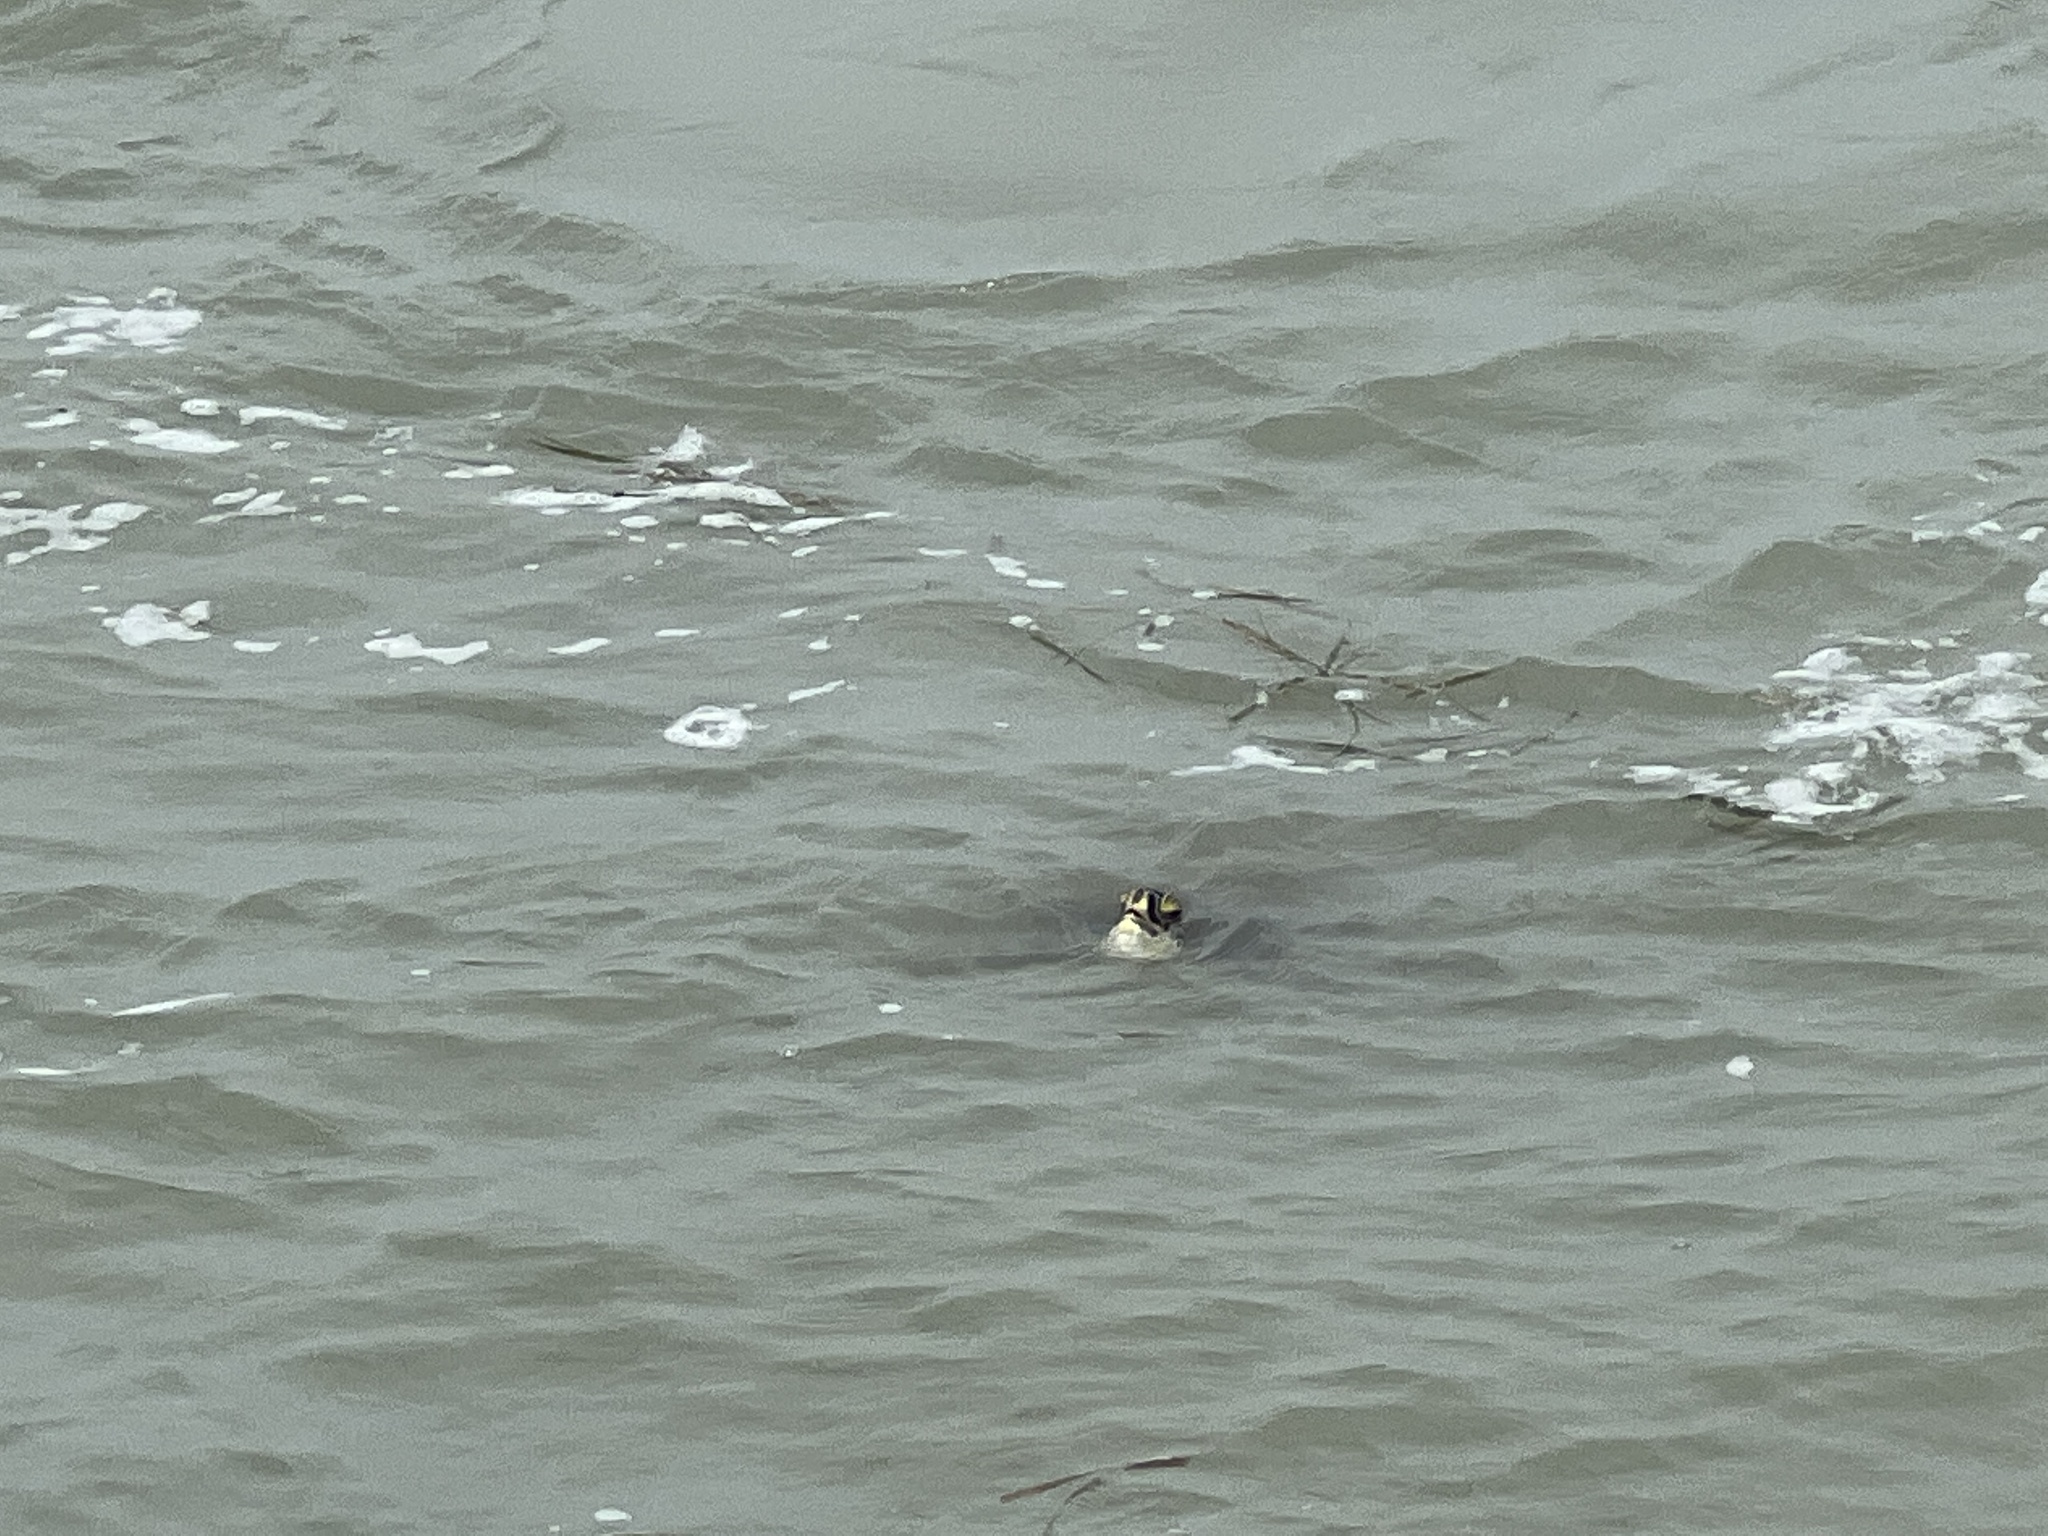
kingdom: Animalia
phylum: Chordata
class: Testudines
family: Cheloniidae
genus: Chelonia
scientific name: Chelonia mydas
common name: Green turtle
